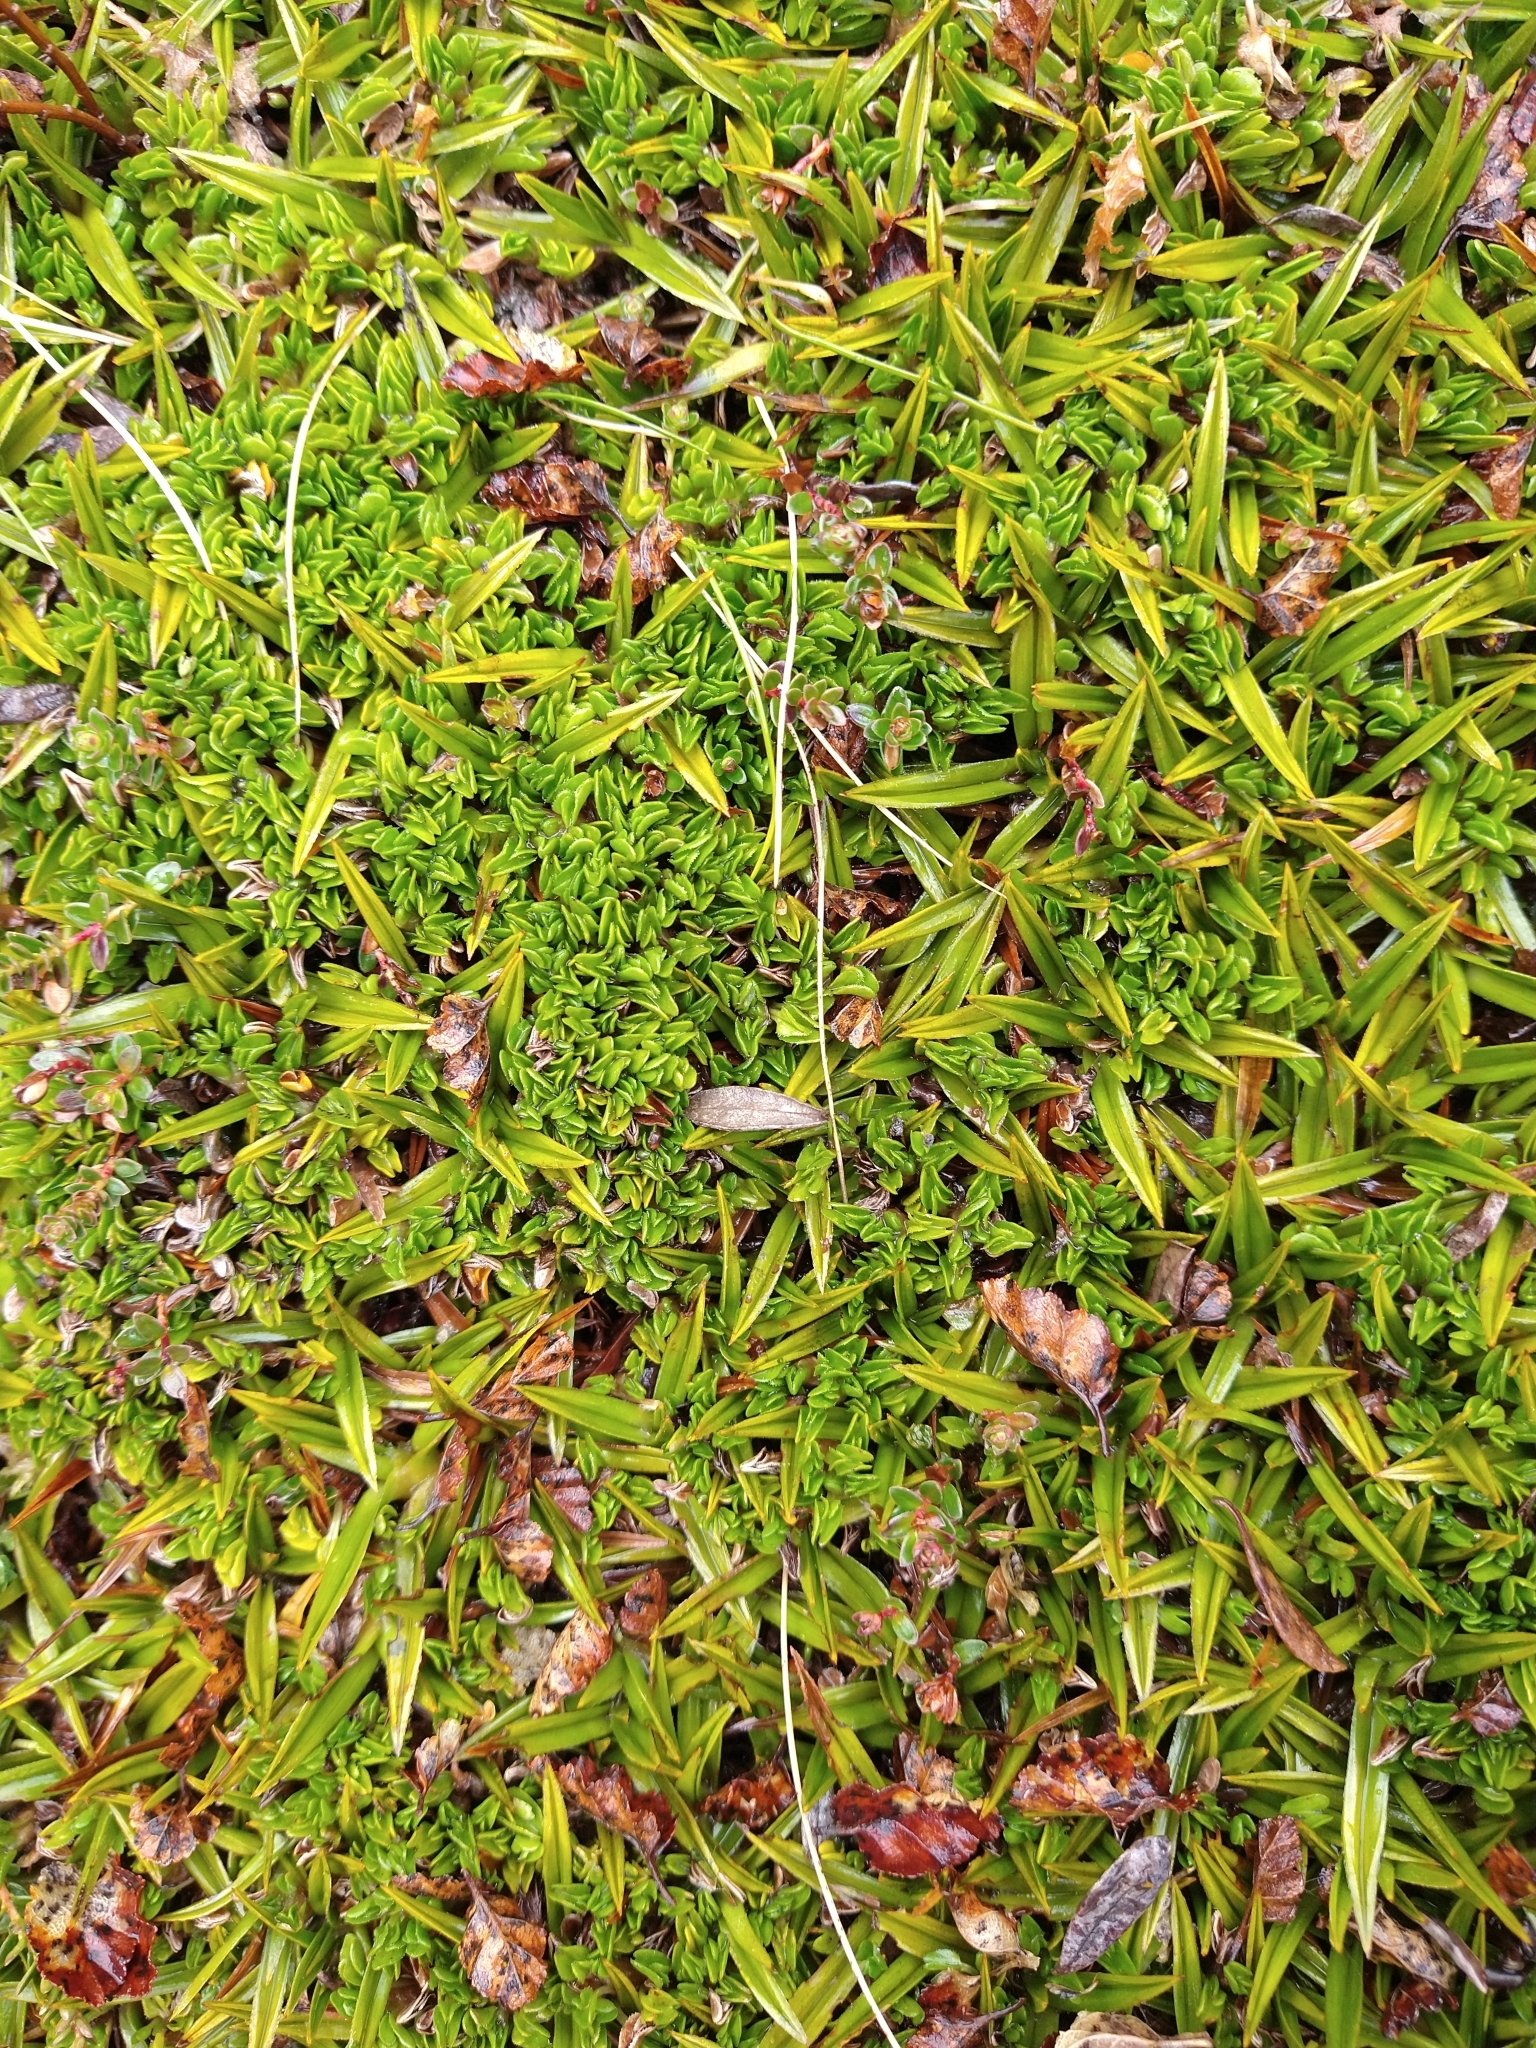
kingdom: Plantae
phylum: Tracheophyta
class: Magnoliopsida
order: Ranunculales
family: Ranunculaceae
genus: Caltha
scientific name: Caltha dionaeifolia
